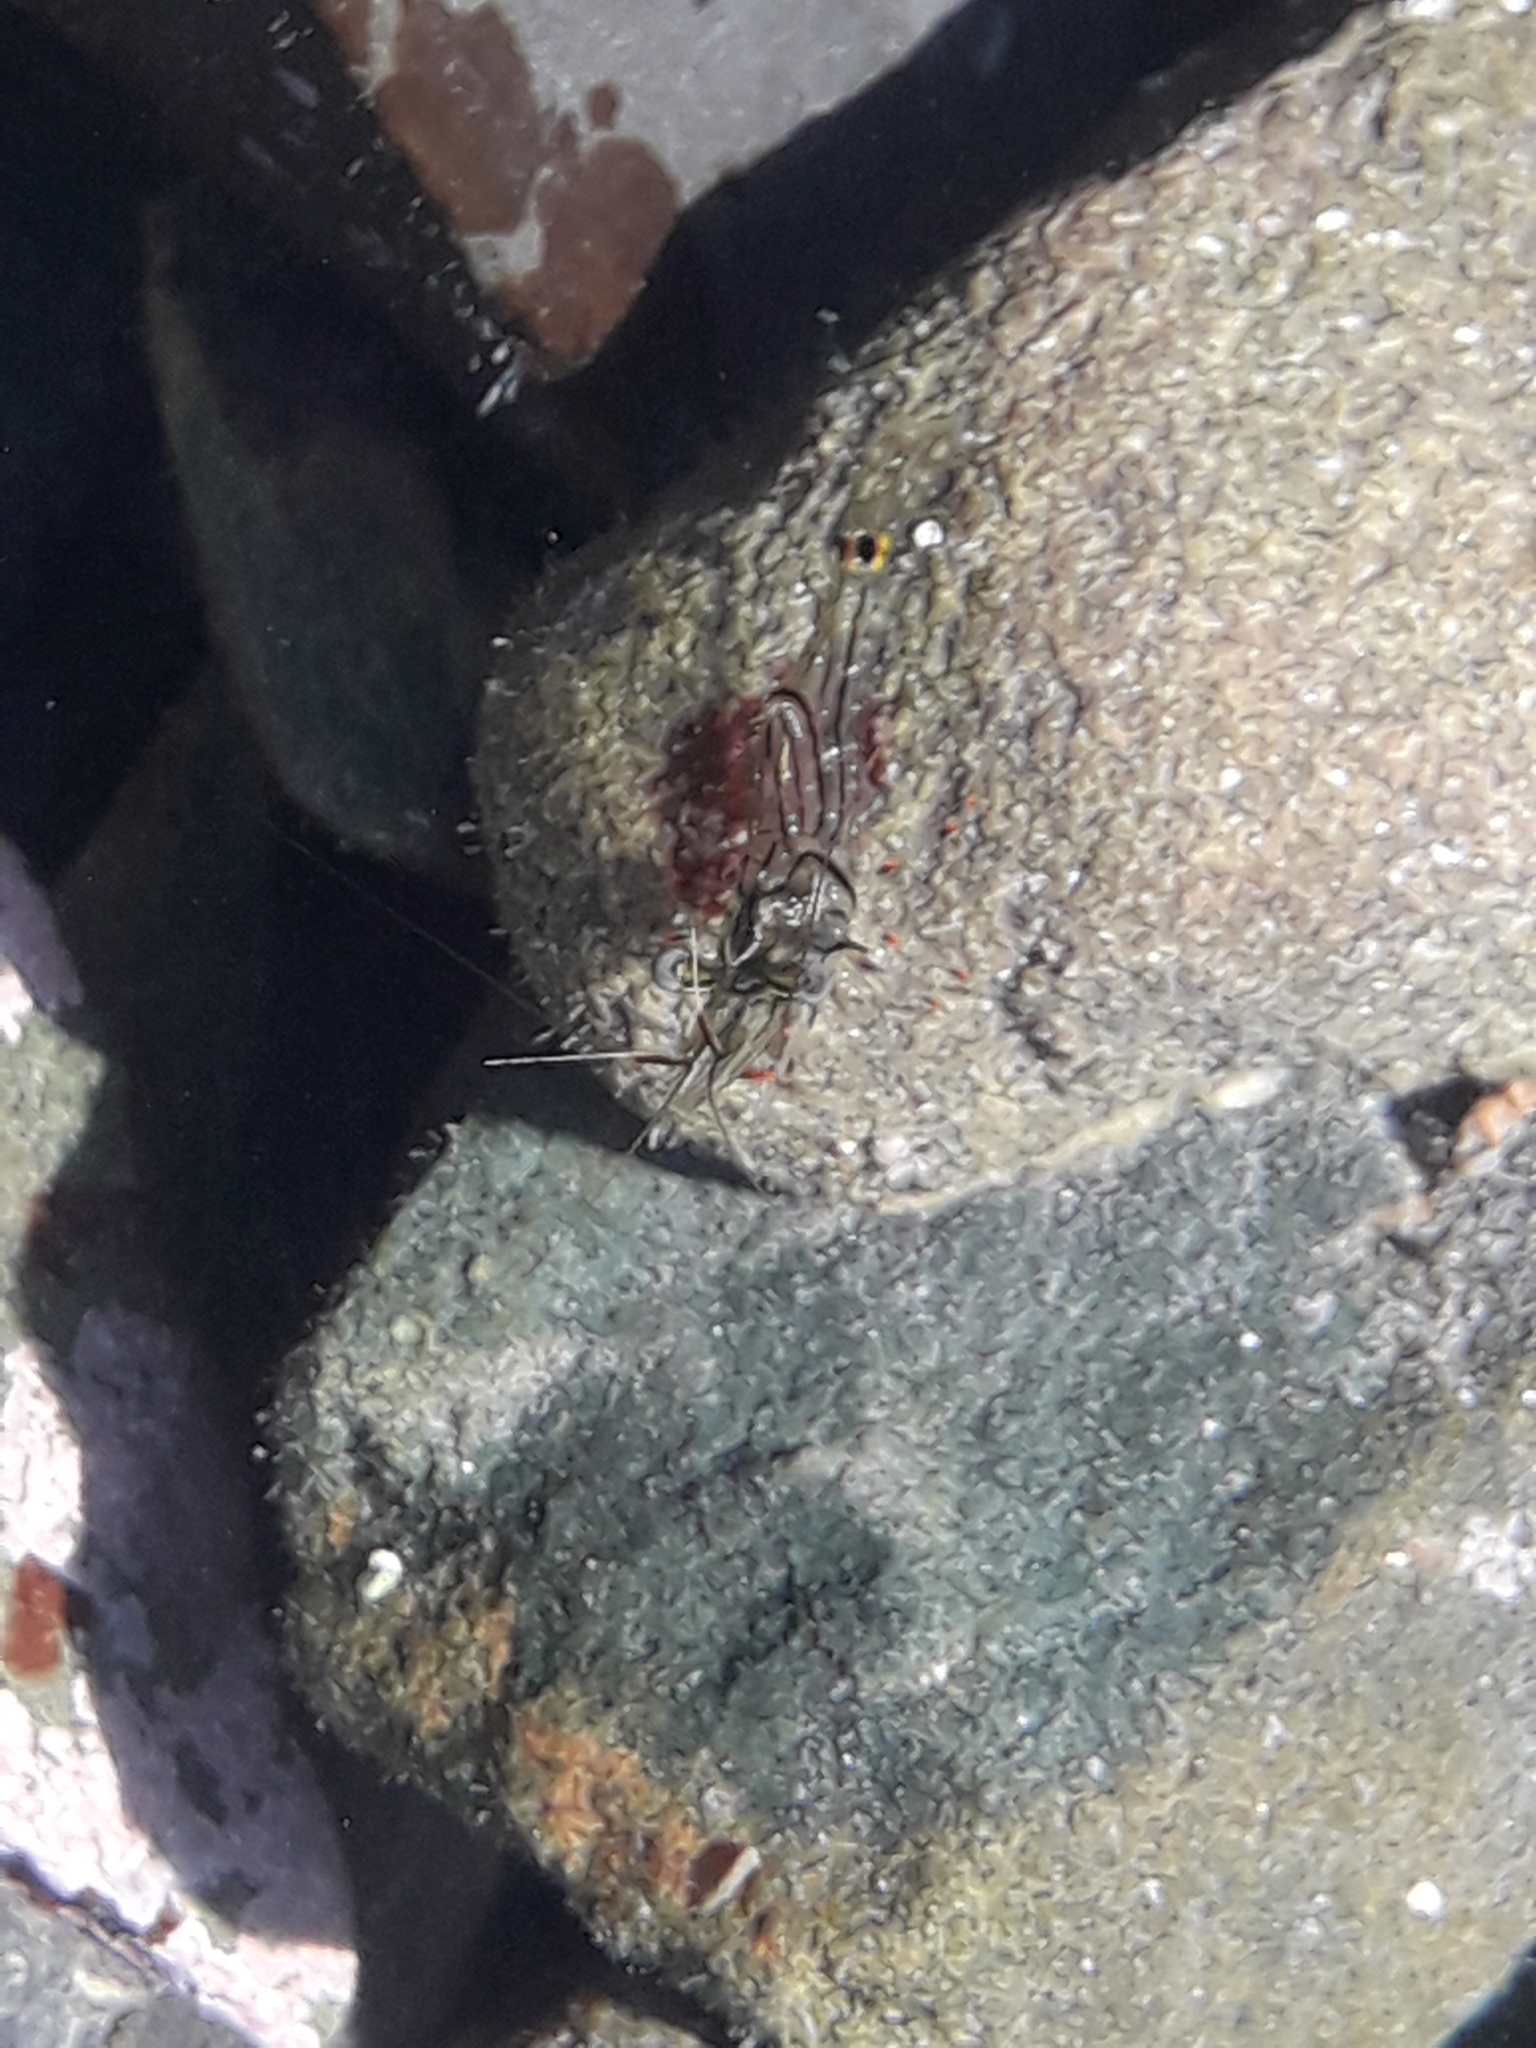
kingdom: Animalia
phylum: Arthropoda
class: Malacostraca
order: Decapoda
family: Palaemonidae
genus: Palaemon
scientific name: Palaemon affinis
